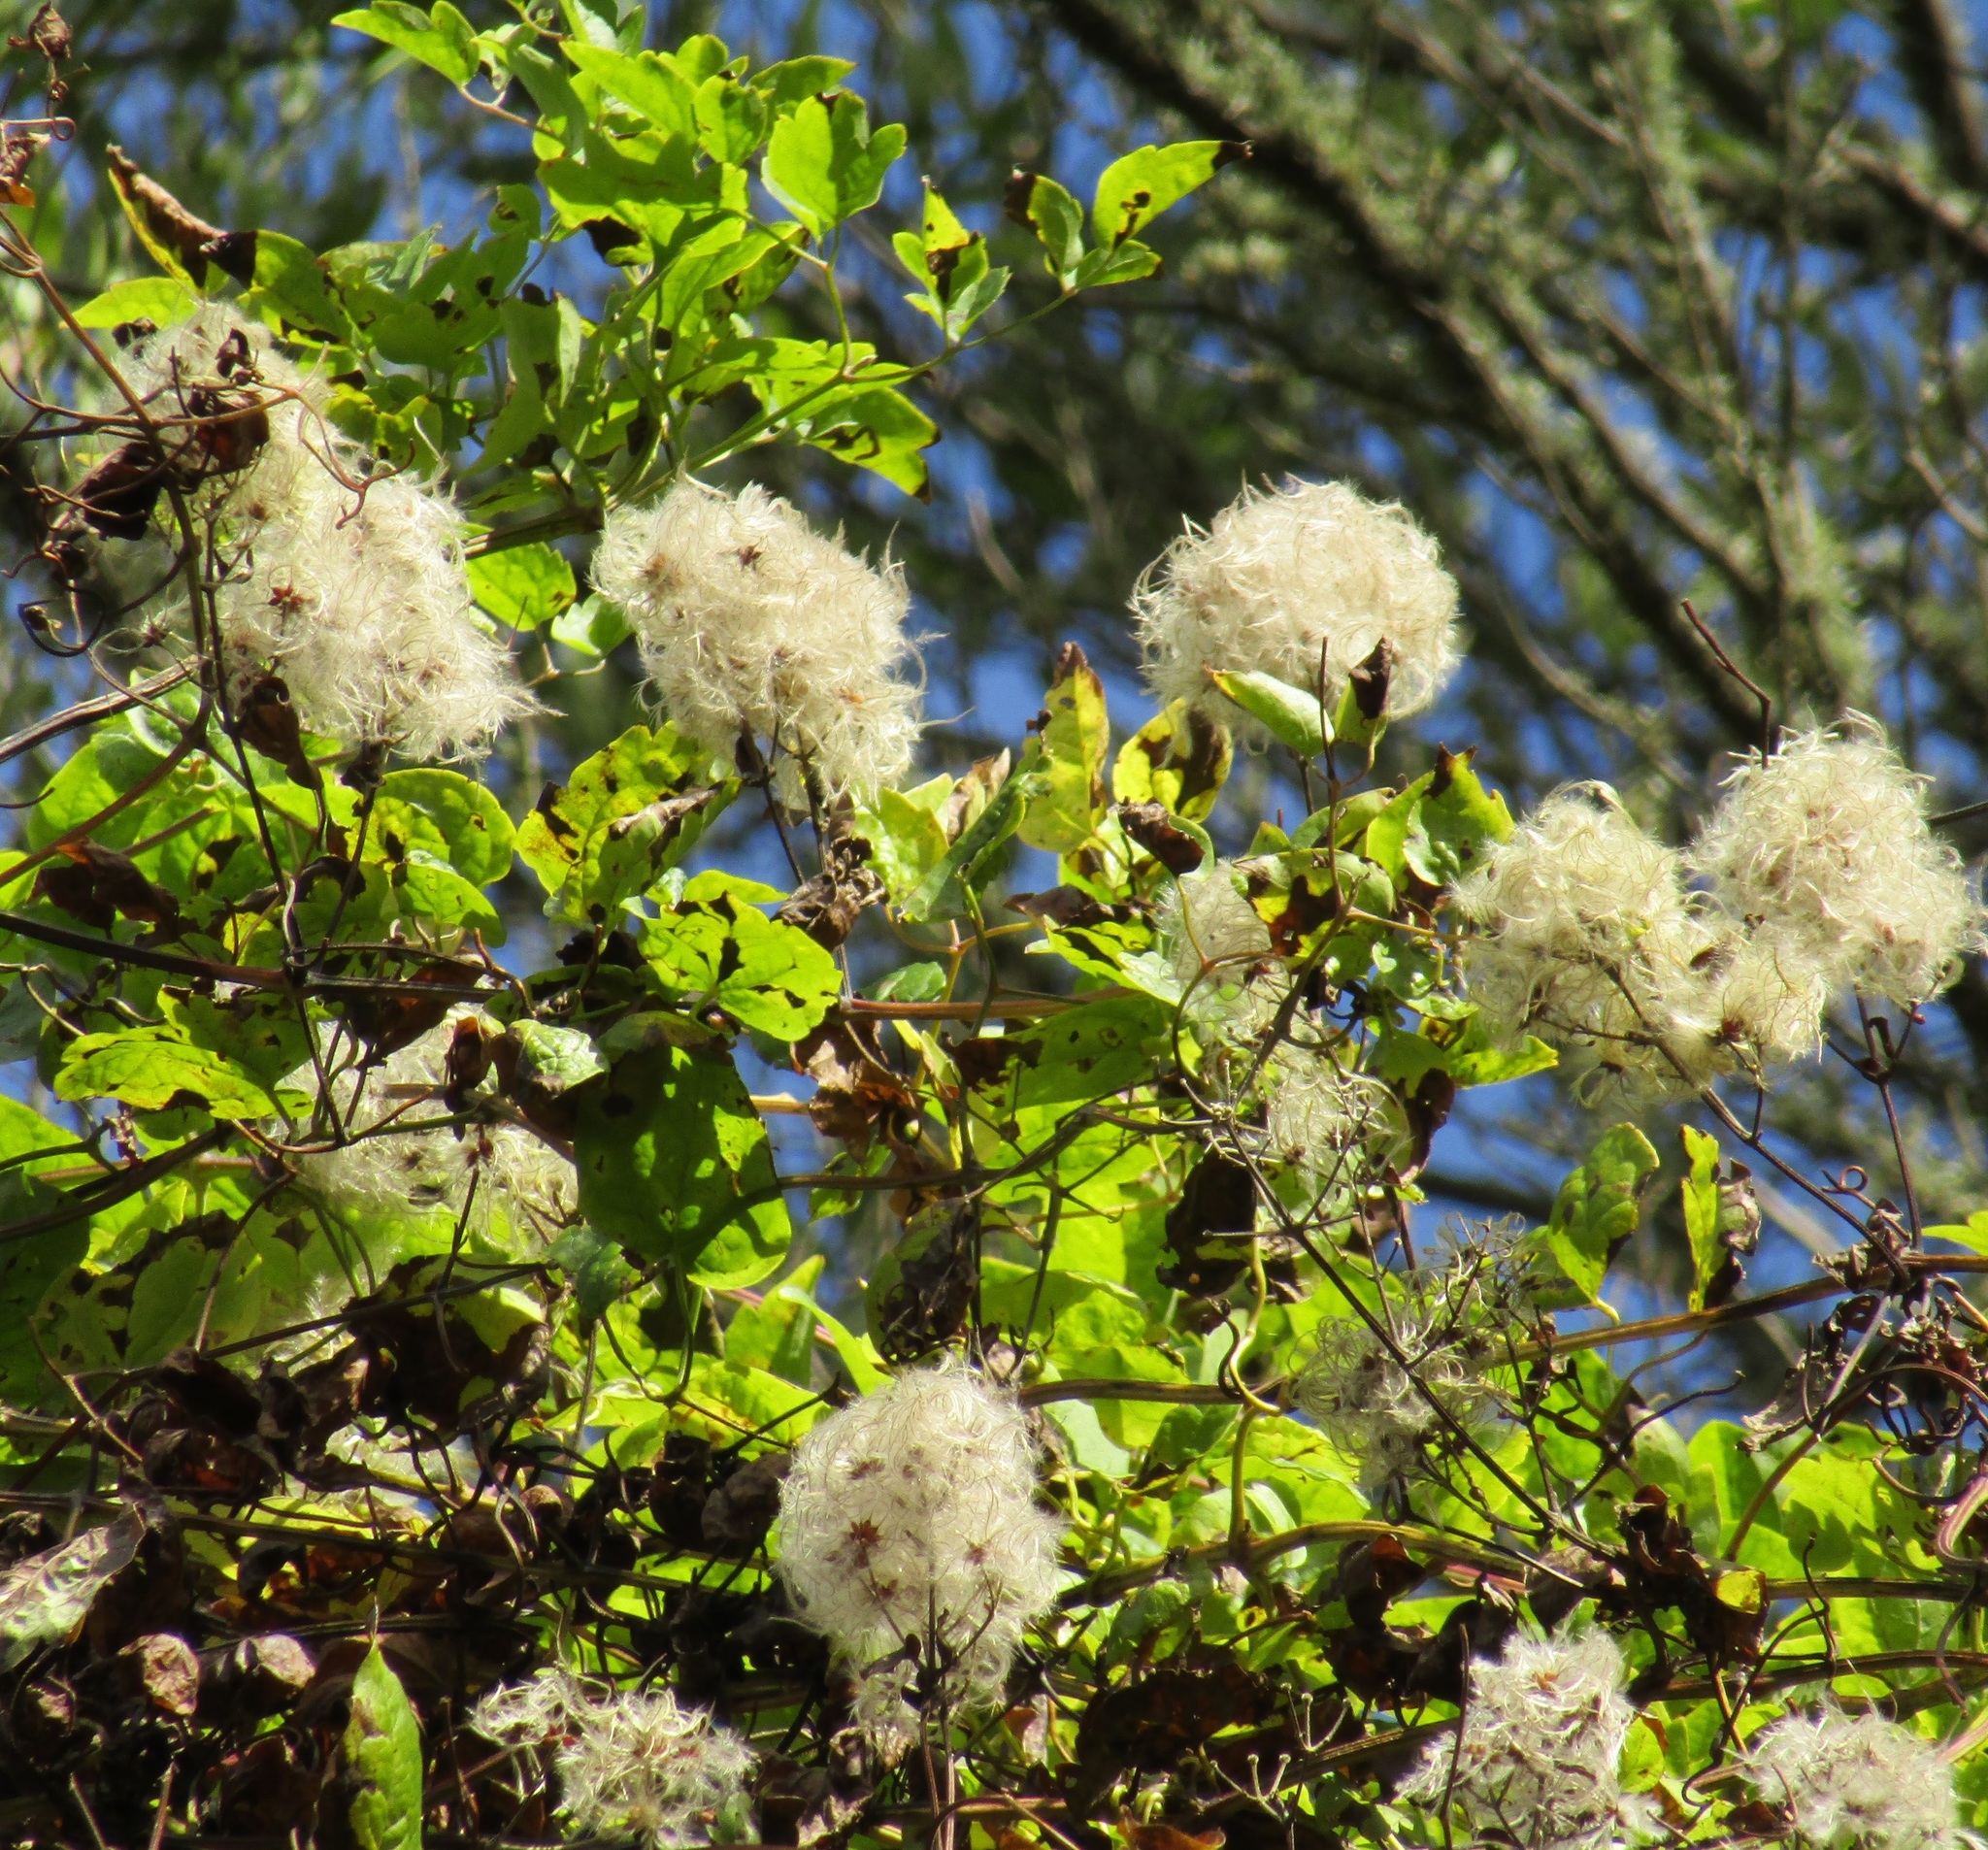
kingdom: Plantae
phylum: Tracheophyta
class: Magnoliopsida
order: Ranunculales
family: Ranunculaceae
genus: Clematis
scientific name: Clematis vitalba
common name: Evergreen clematis
